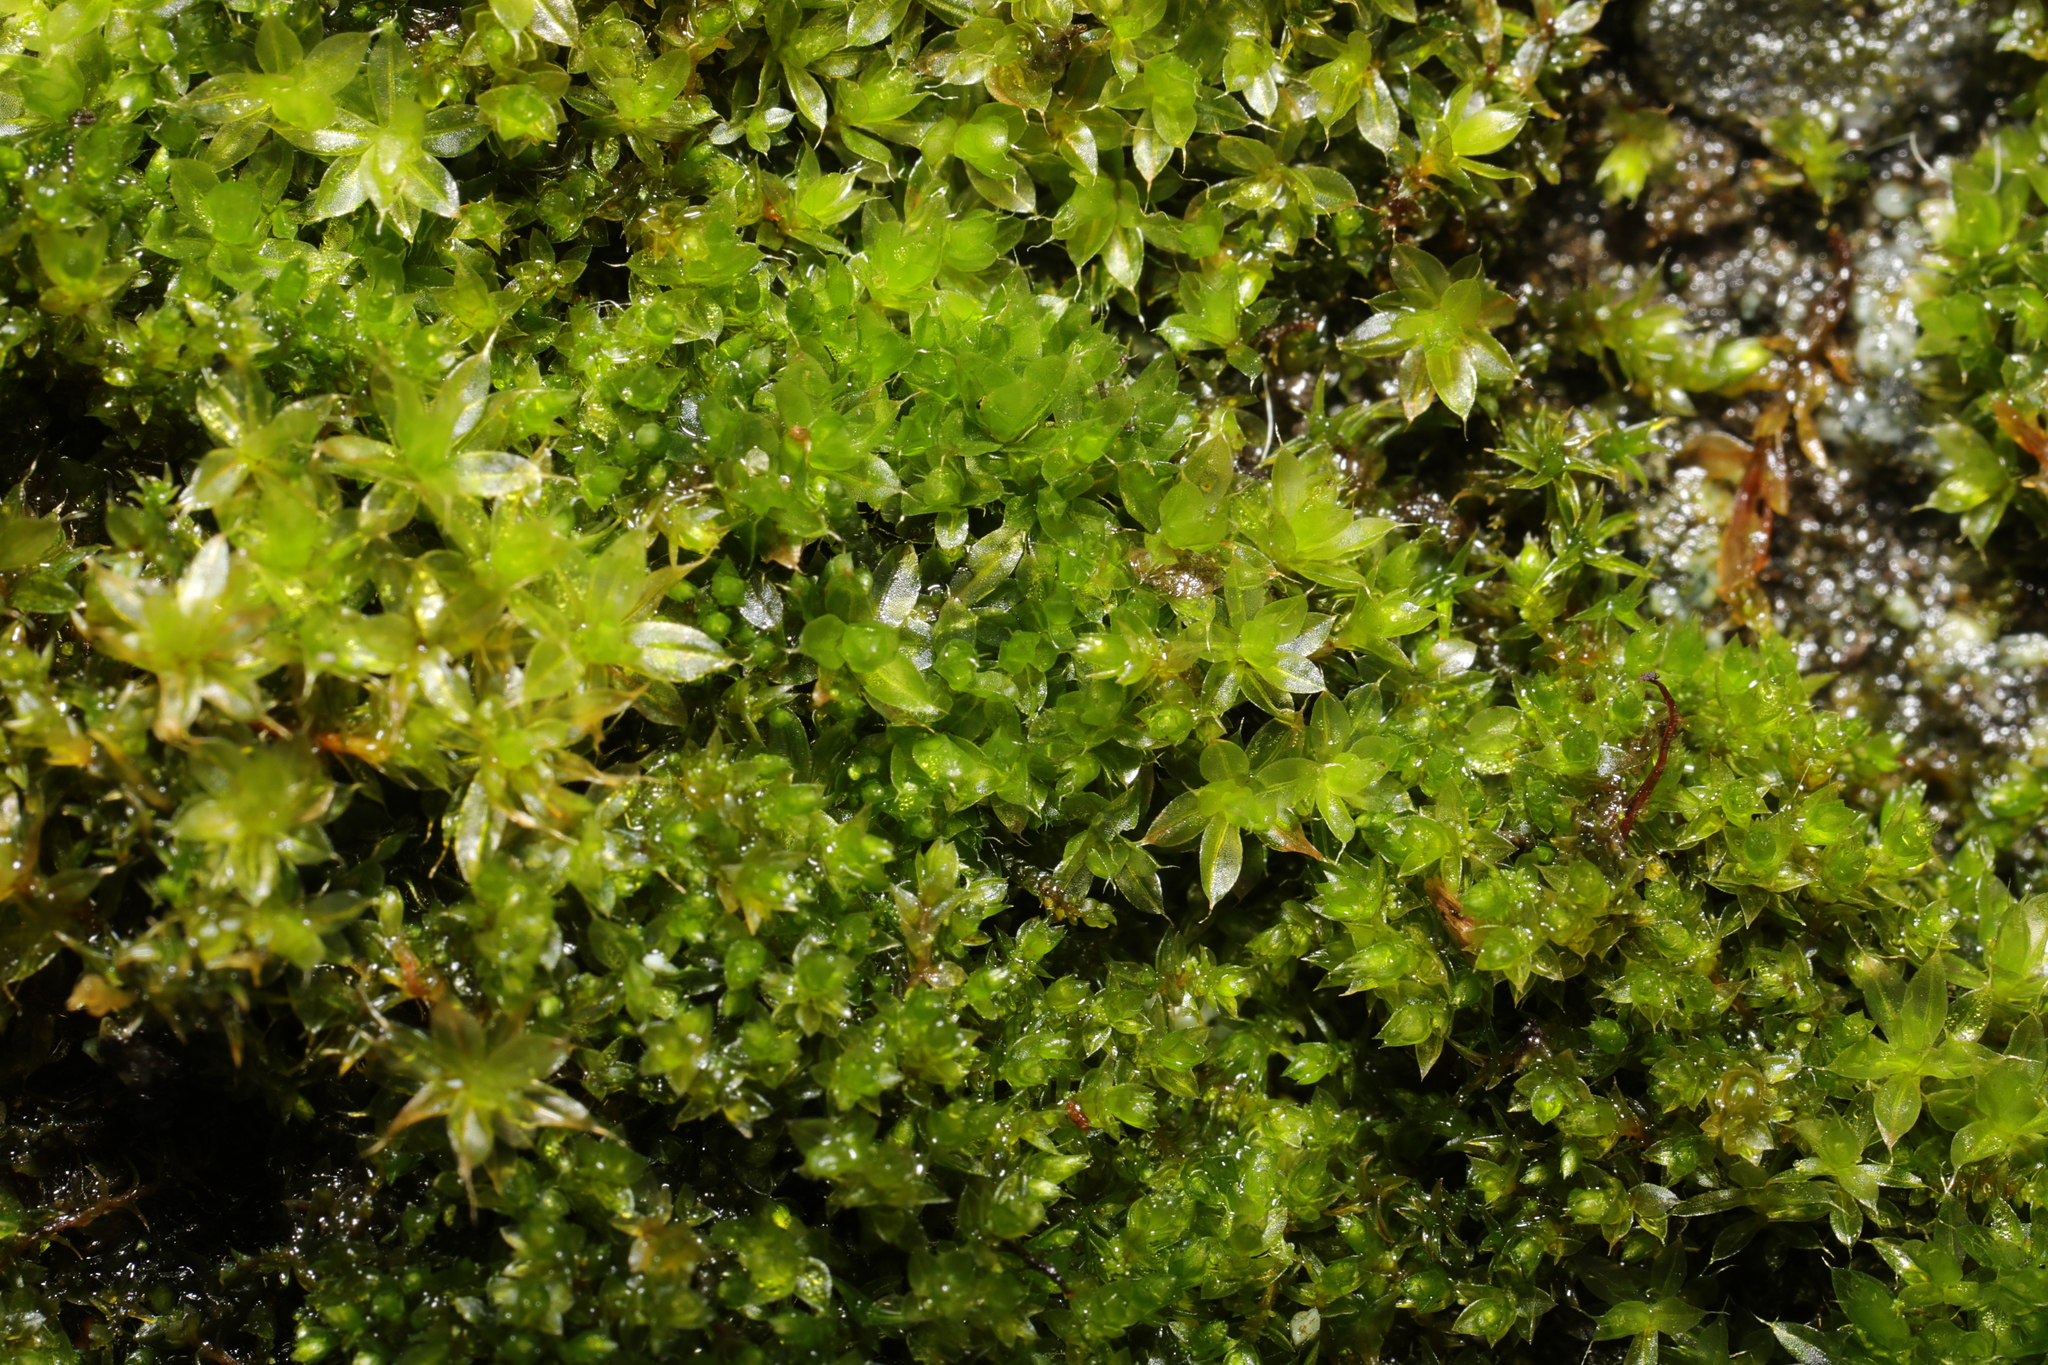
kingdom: Plantae
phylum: Bryophyta
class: Bryopsida
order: Bryales
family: Bryaceae
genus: Rosulabryum
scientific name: Rosulabryum capillare
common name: Capillary thread-moss
